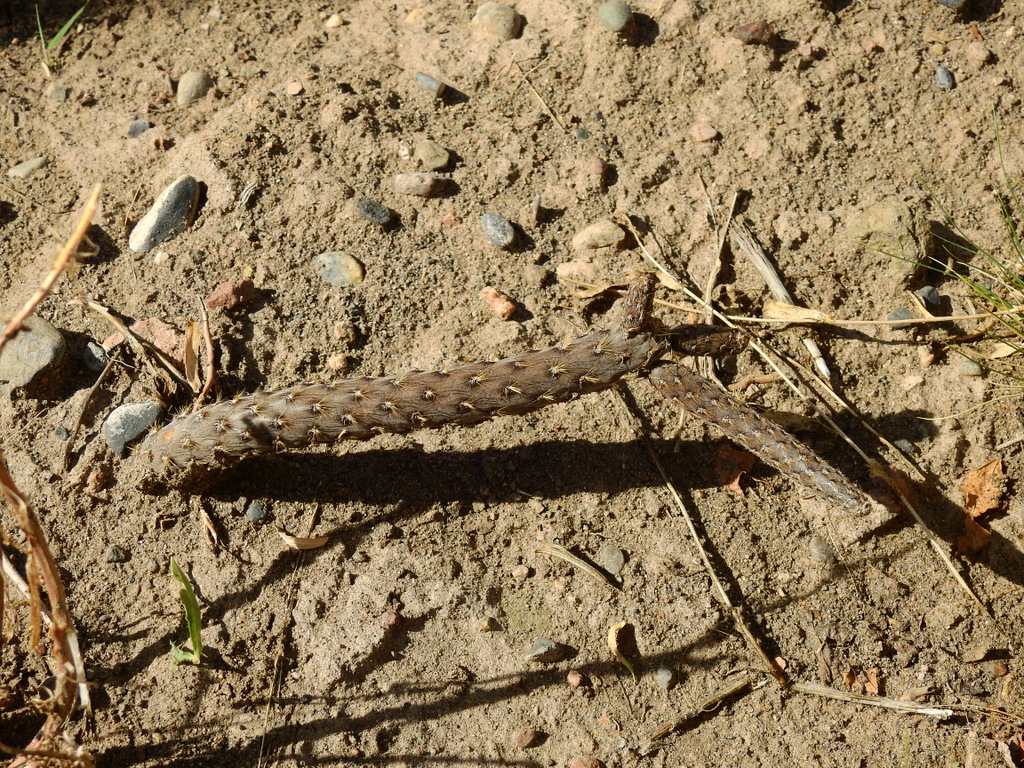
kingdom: Plantae
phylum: Tracheophyta
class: Magnoliopsida
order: Caryophyllales
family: Cactaceae
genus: Pterocactus
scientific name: Pterocactus tuberosus
